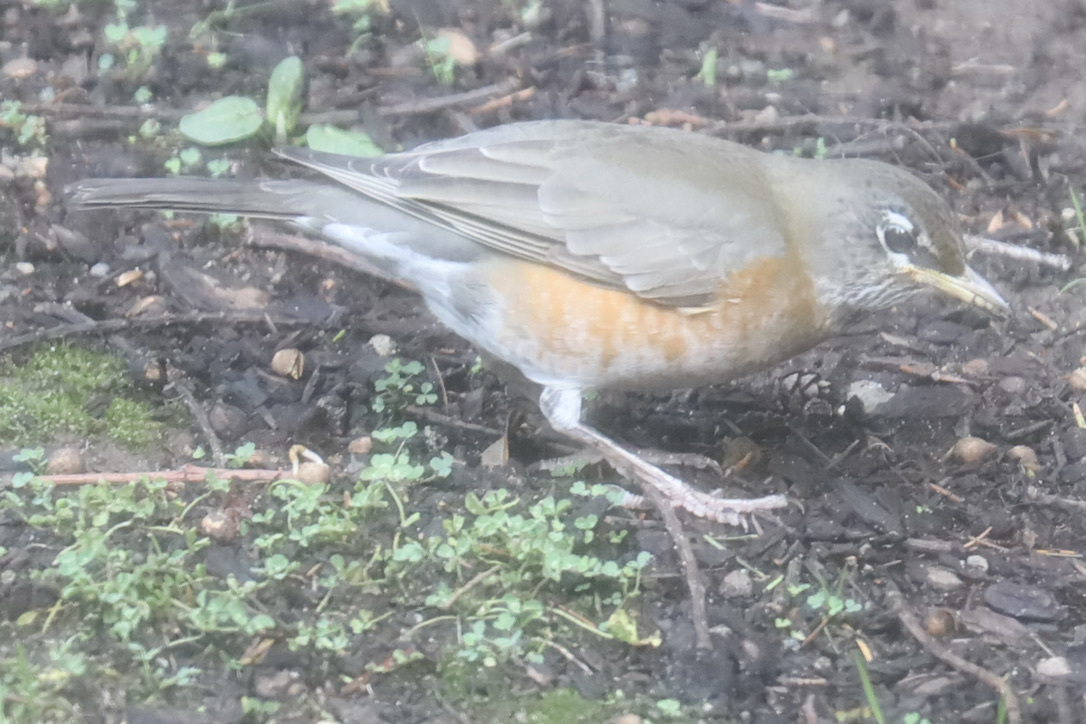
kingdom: Animalia
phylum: Chordata
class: Aves
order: Passeriformes
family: Turdidae
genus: Turdus
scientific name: Turdus migratorius
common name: American robin
